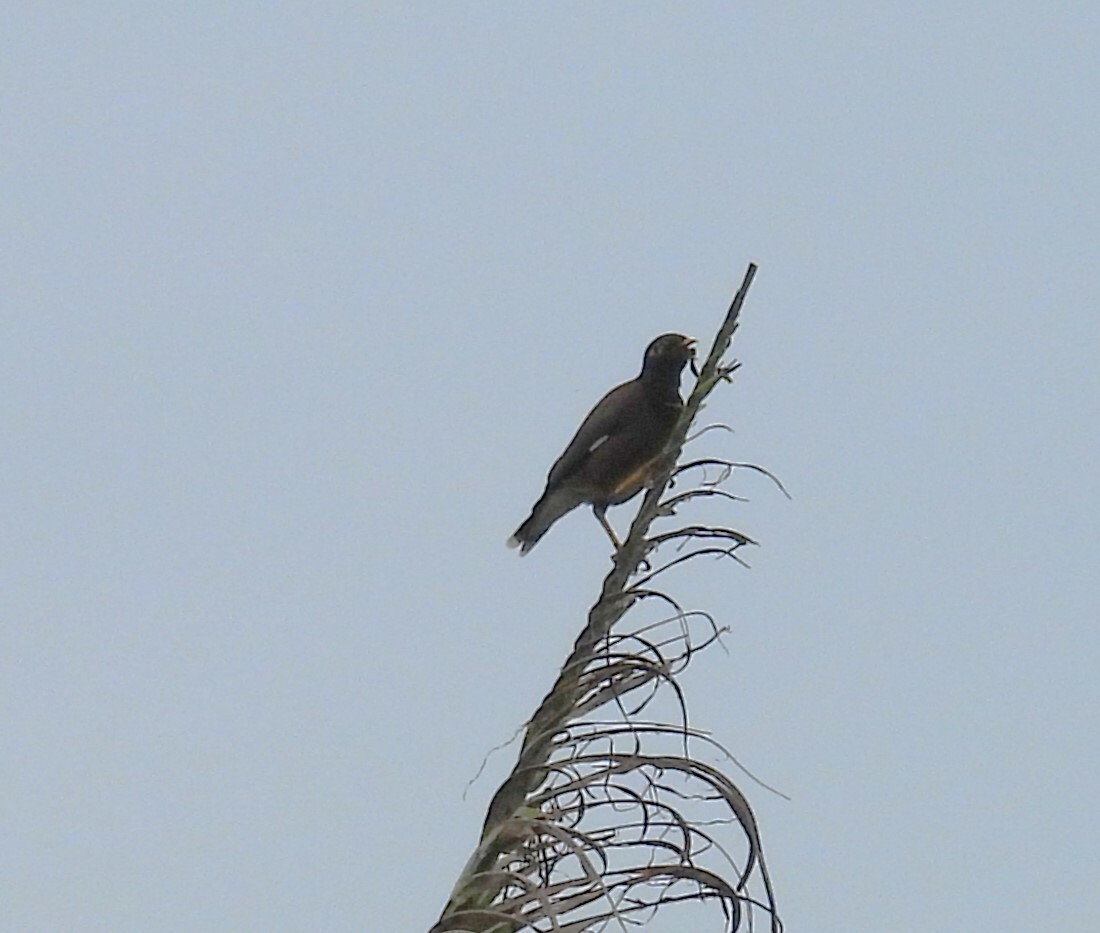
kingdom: Animalia
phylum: Chordata
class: Aves
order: Passeriformes
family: Sturnidae
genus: Acridotheres
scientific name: Acridotheres tristis
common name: Common myna
